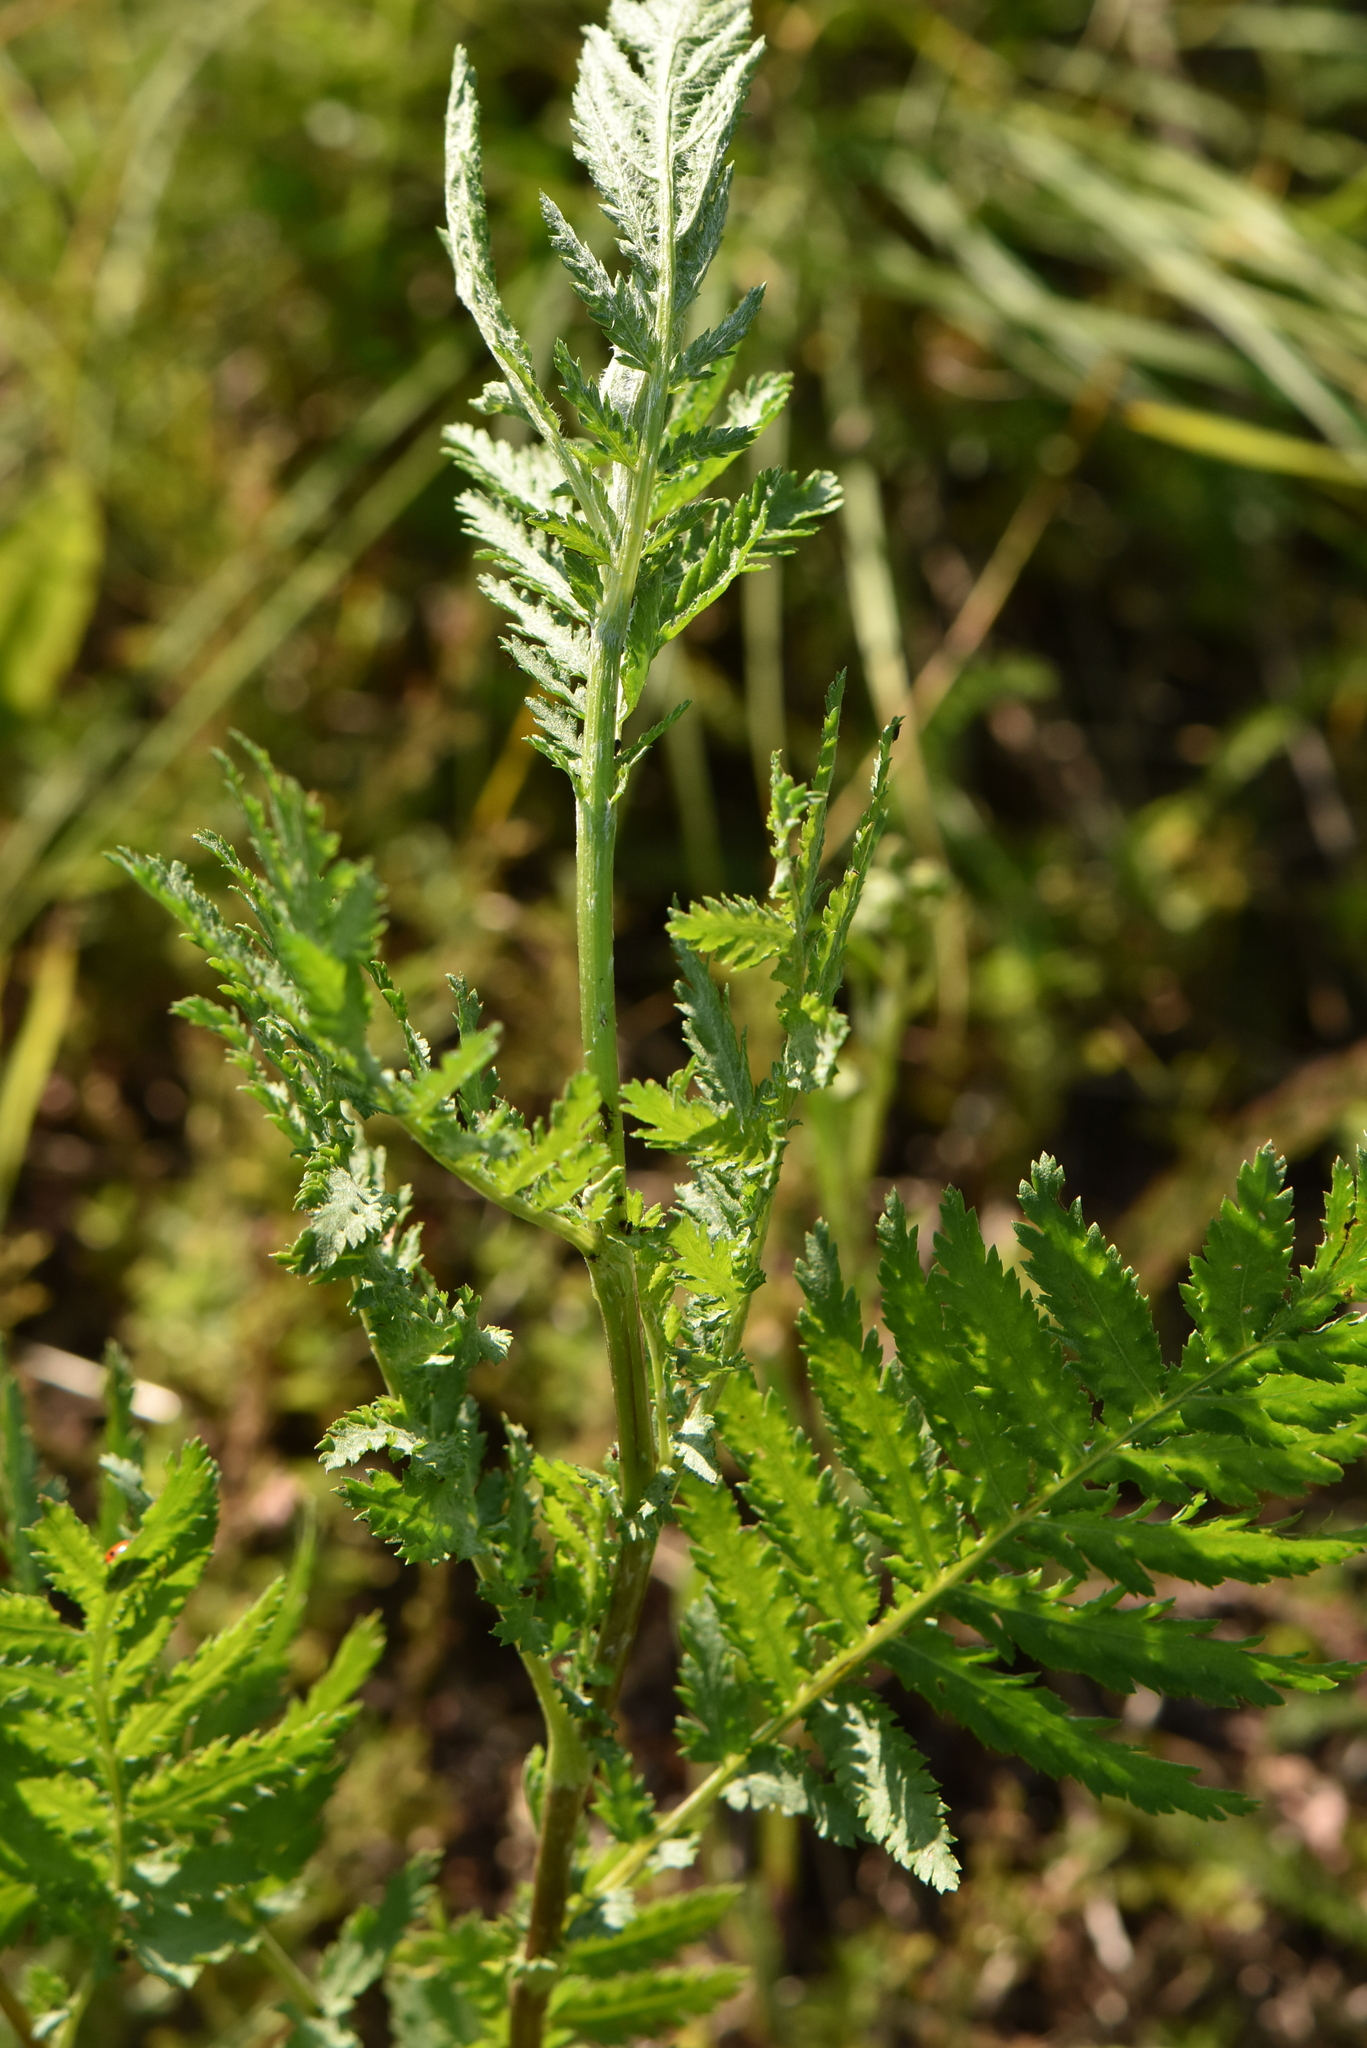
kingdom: Plantae
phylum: Tracheophyta
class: Magnoliopsida
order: Asterales
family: Asteraceae
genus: Tanacetum
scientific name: Tanacetum vulgare
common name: Common tansy
